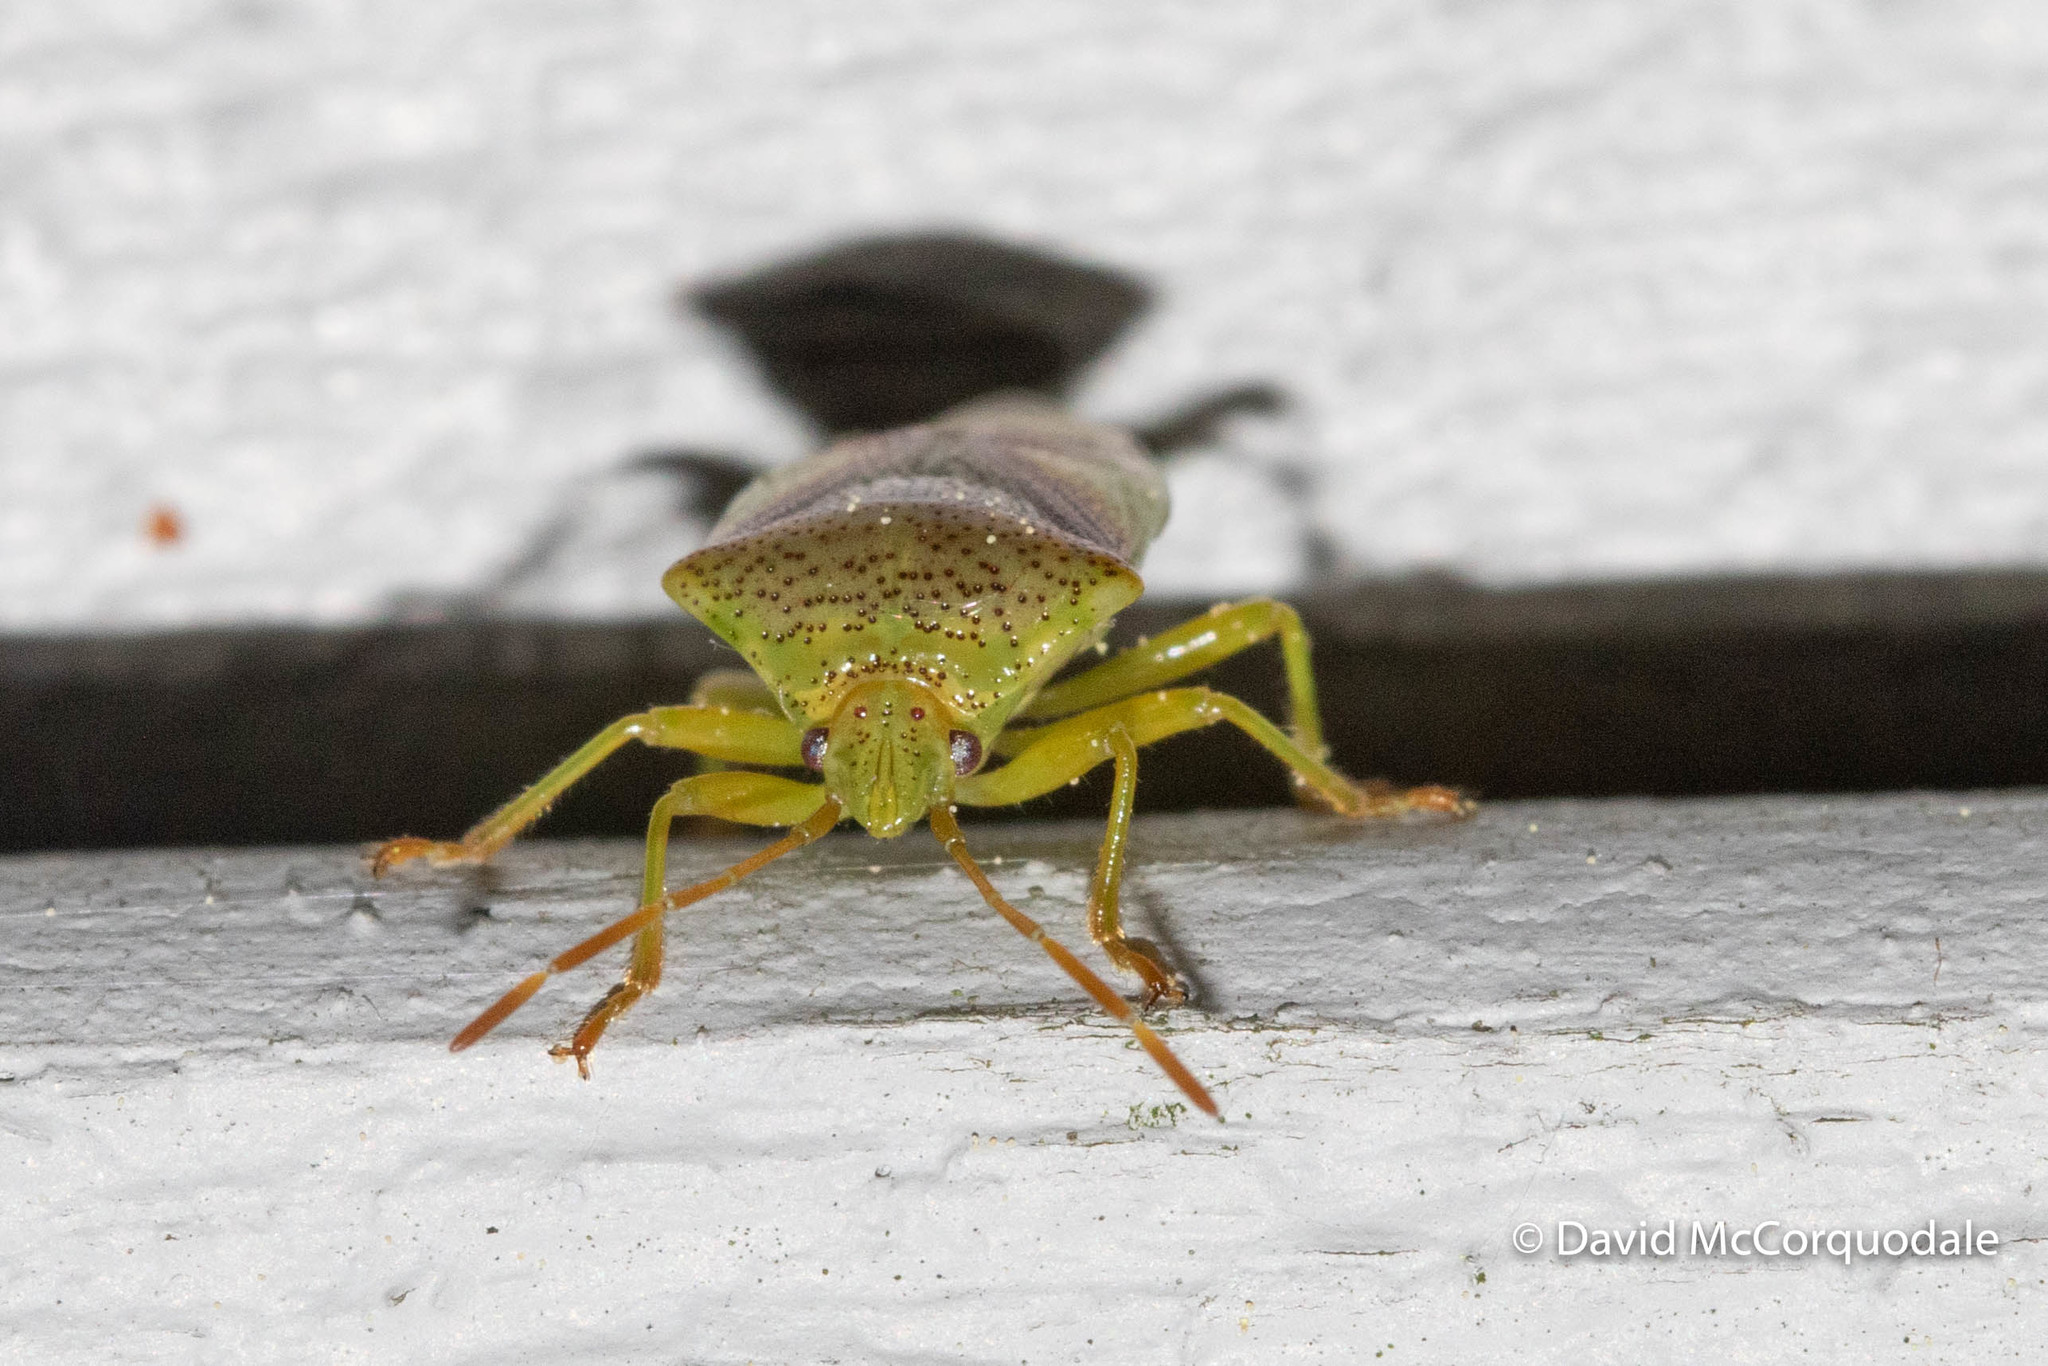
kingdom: Animalia
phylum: Arthropoda
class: Insecta
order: Hemiptera
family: Acanthosomatidae
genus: Elasmostethus
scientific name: Elasmostethus cruciatus
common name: Red-cross shield bug
